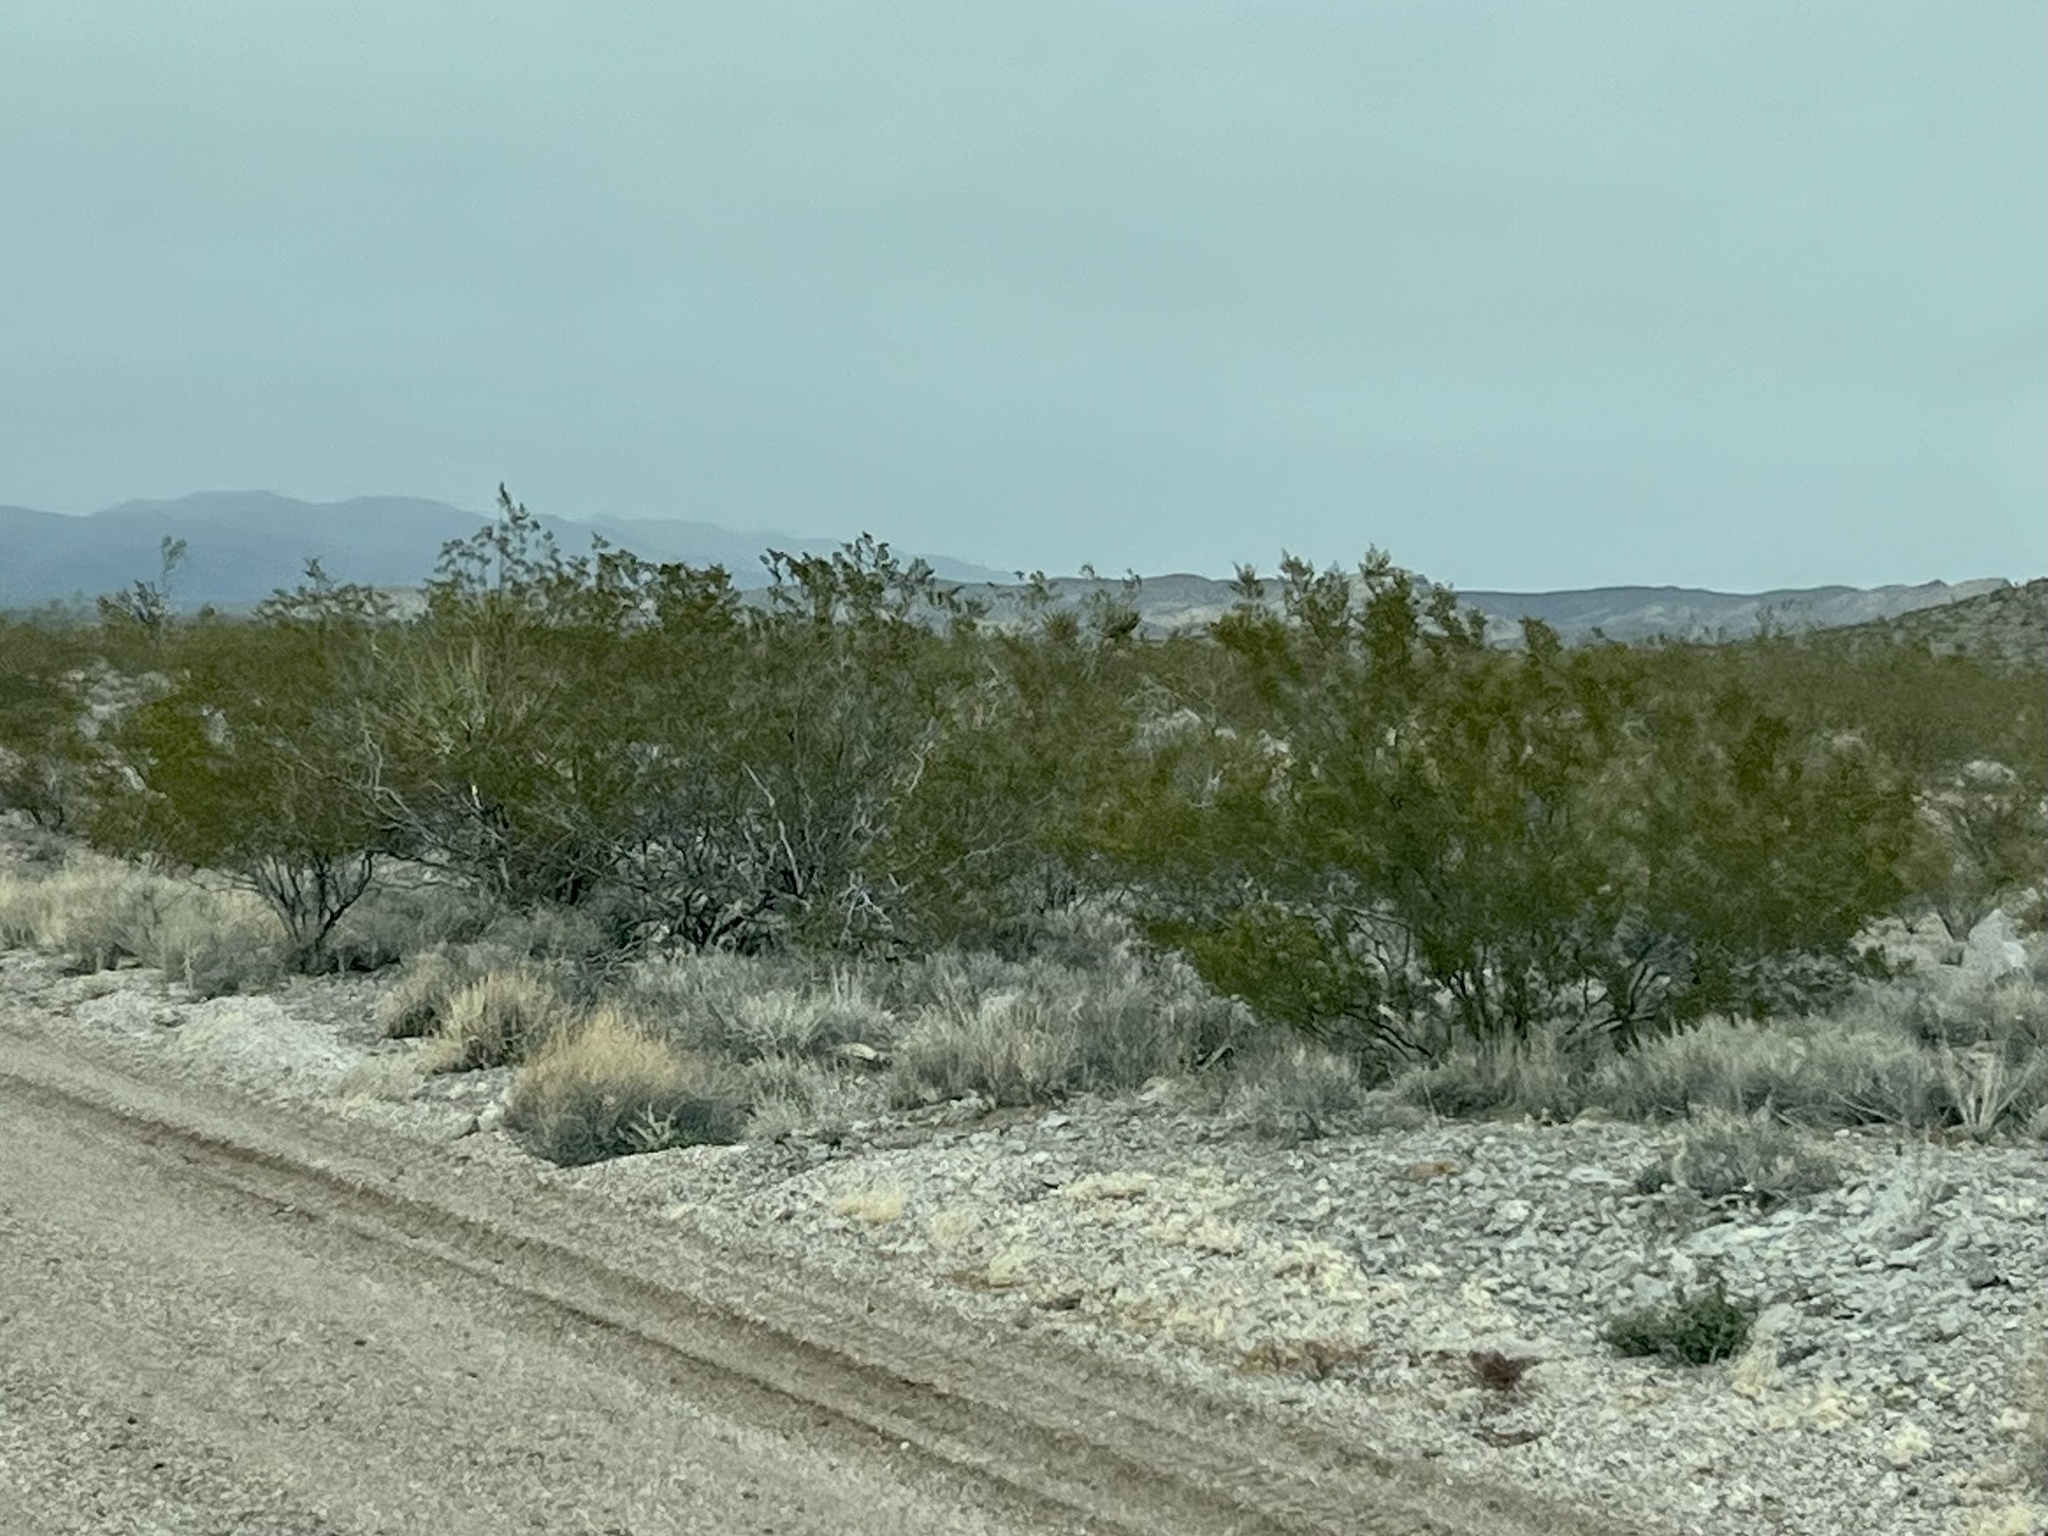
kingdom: Plantae
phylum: Tracheophyta
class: Magnoliopsida
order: Zygophyllales
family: Zygophyllaceae
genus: Larrea
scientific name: Larrea tridentata
